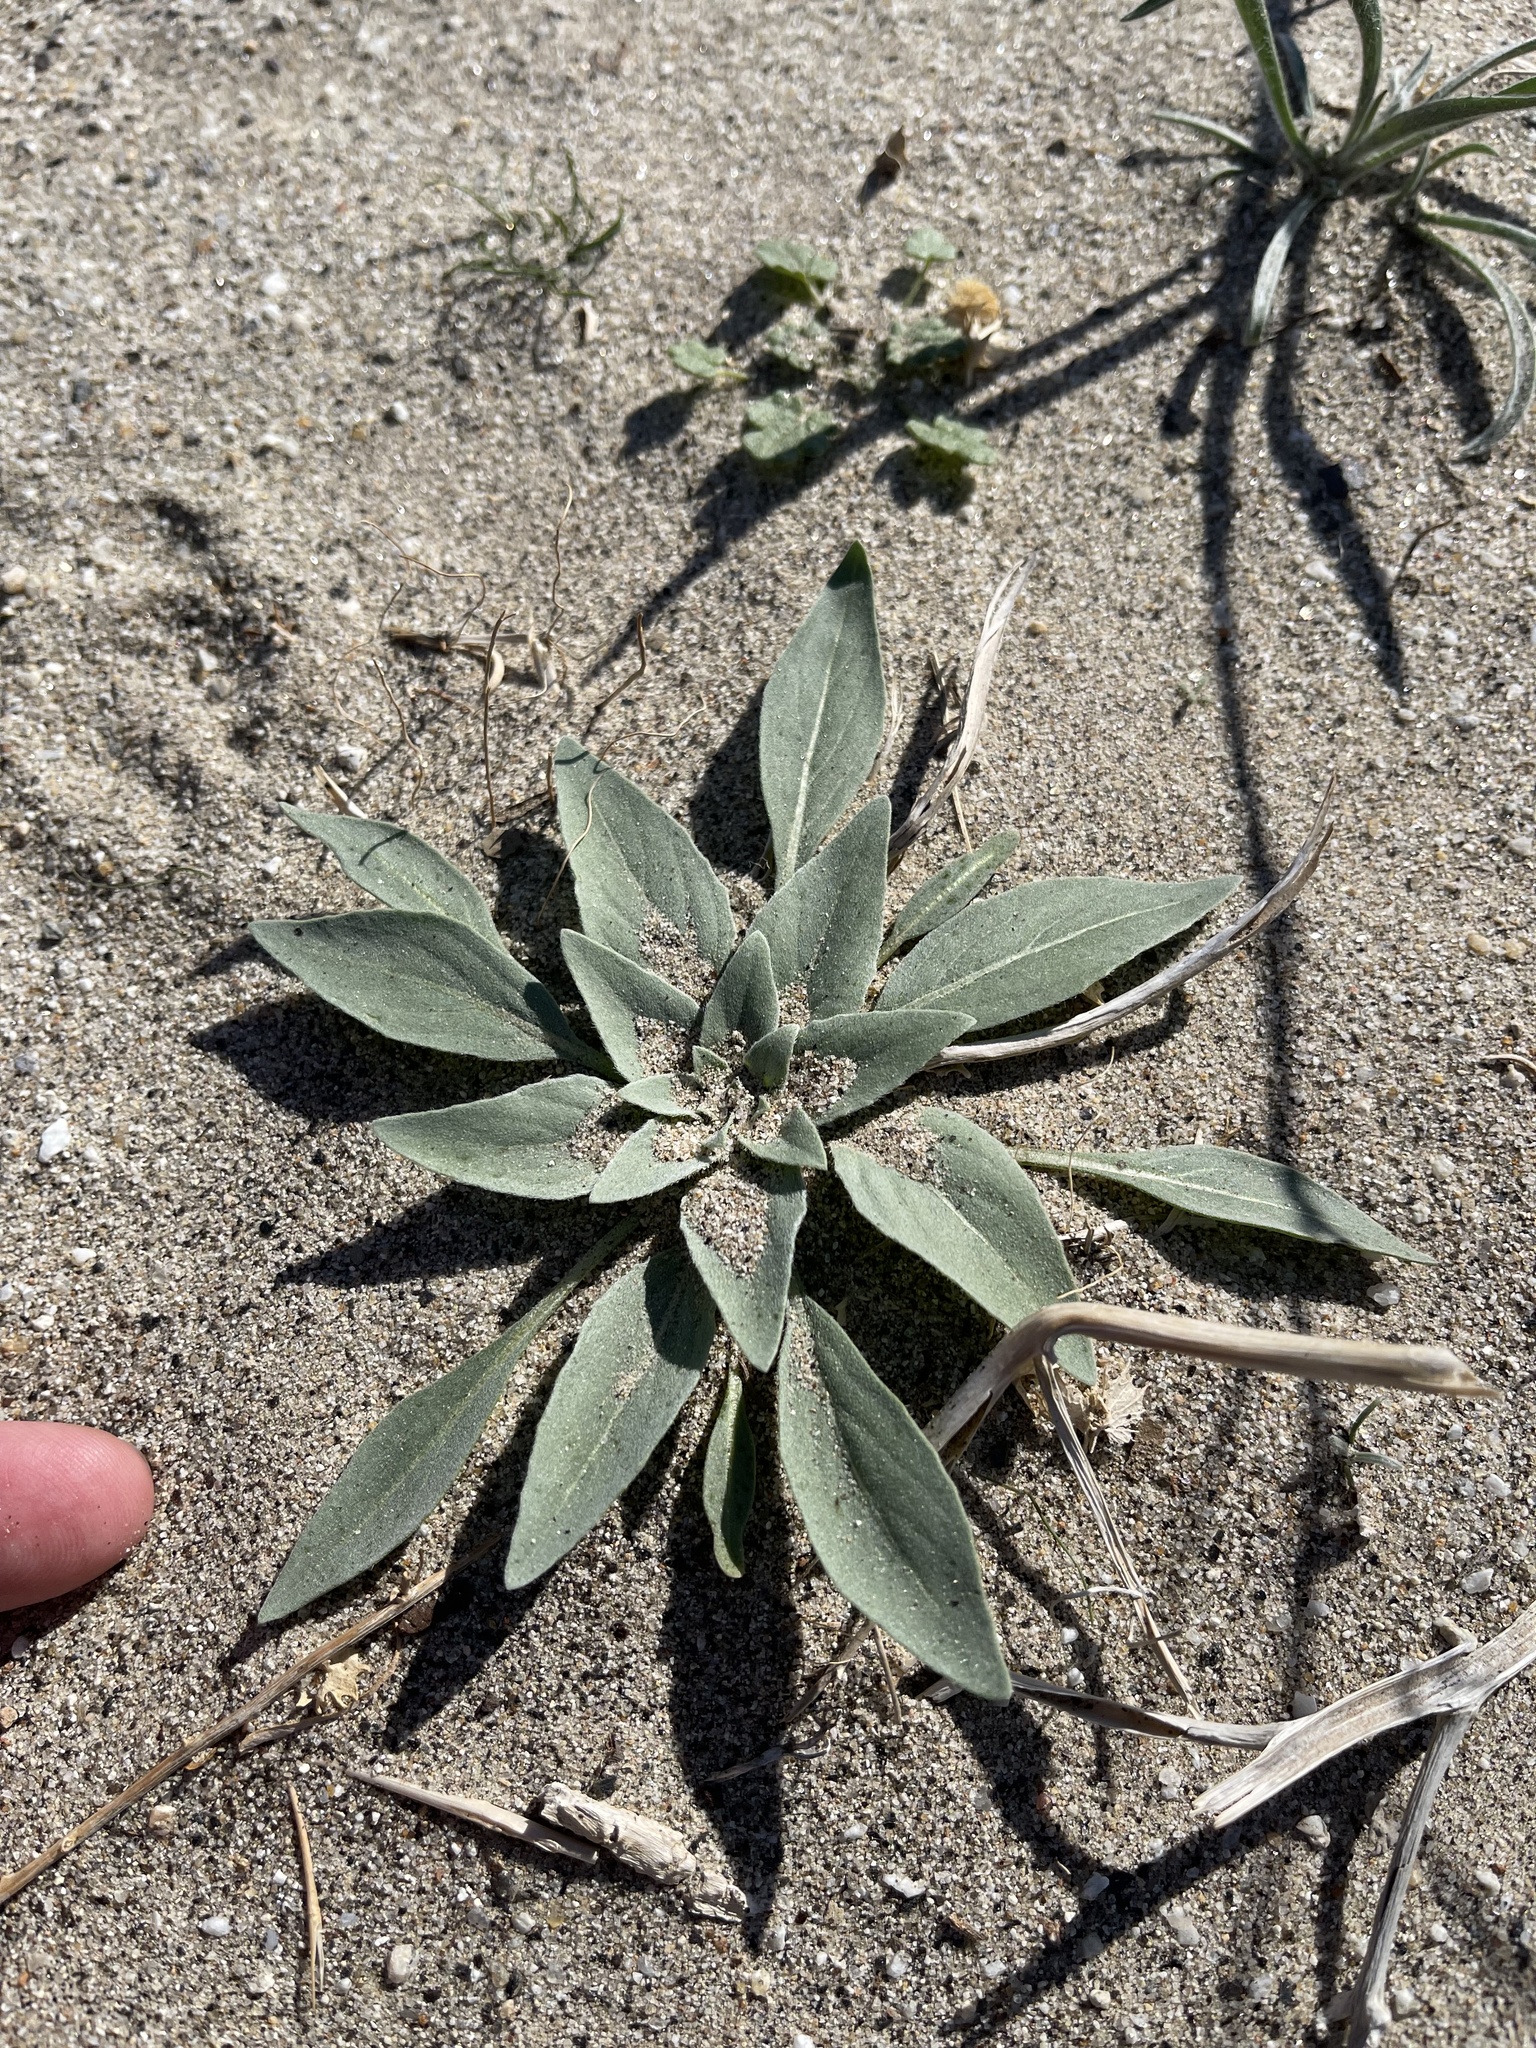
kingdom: Plantae
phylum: Tracheophyta
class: Magnoliopsida
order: Myrtales
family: Onagraceae
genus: Oenothera
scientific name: Oenothera deltoides
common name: Basket evening-primrose
